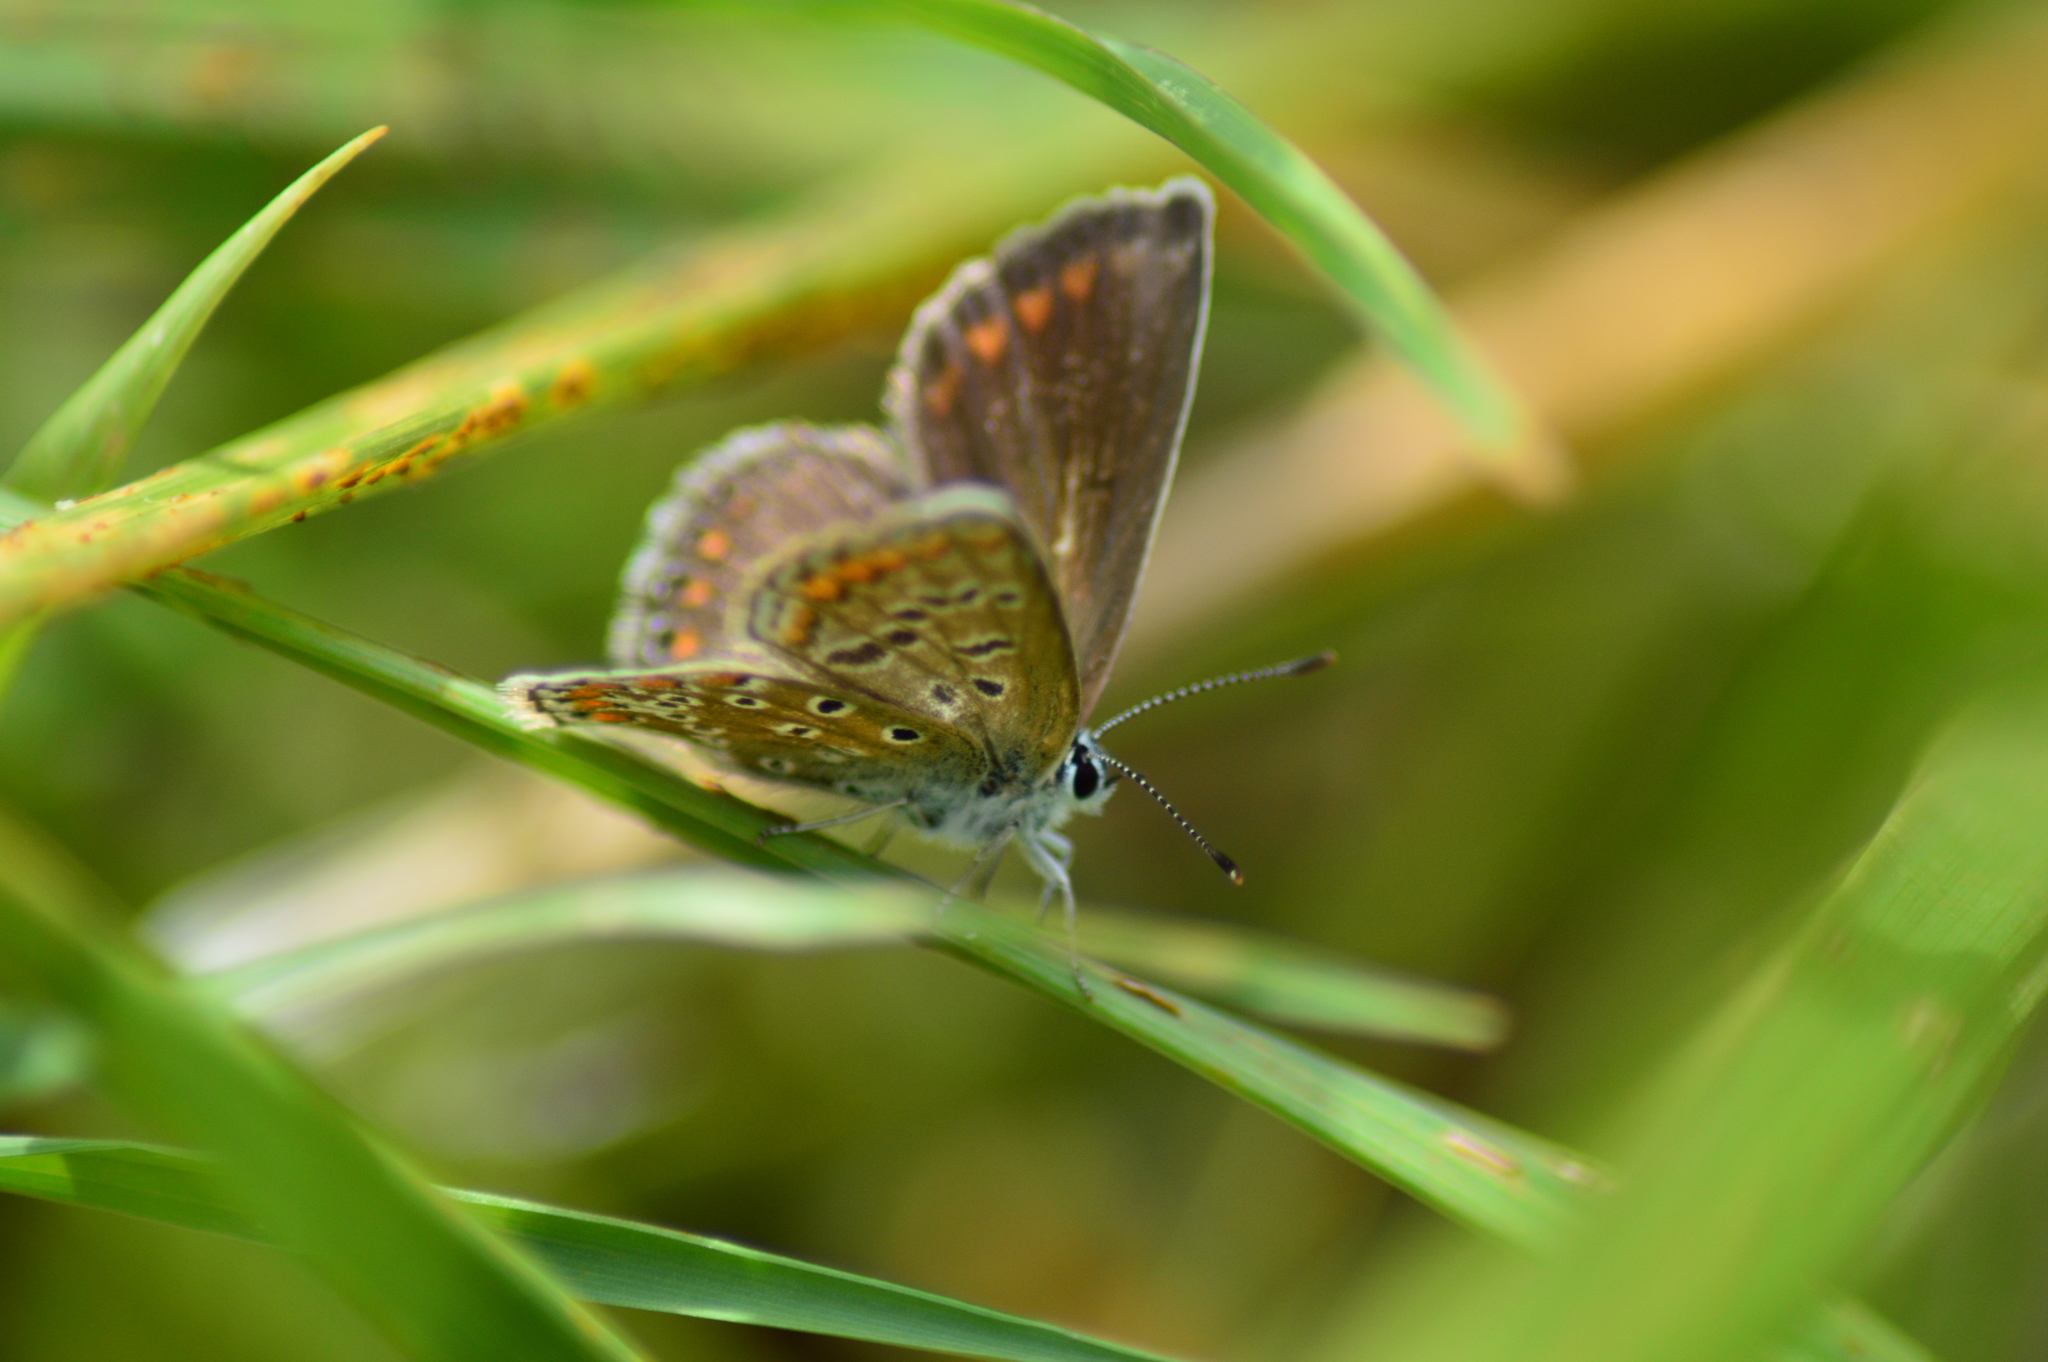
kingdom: Animalia
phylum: Arthropoda
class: Insecta
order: Lepidoptera
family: Lycaenidae
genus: Polyommatus
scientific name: Polyommatus icarus
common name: Common blue
